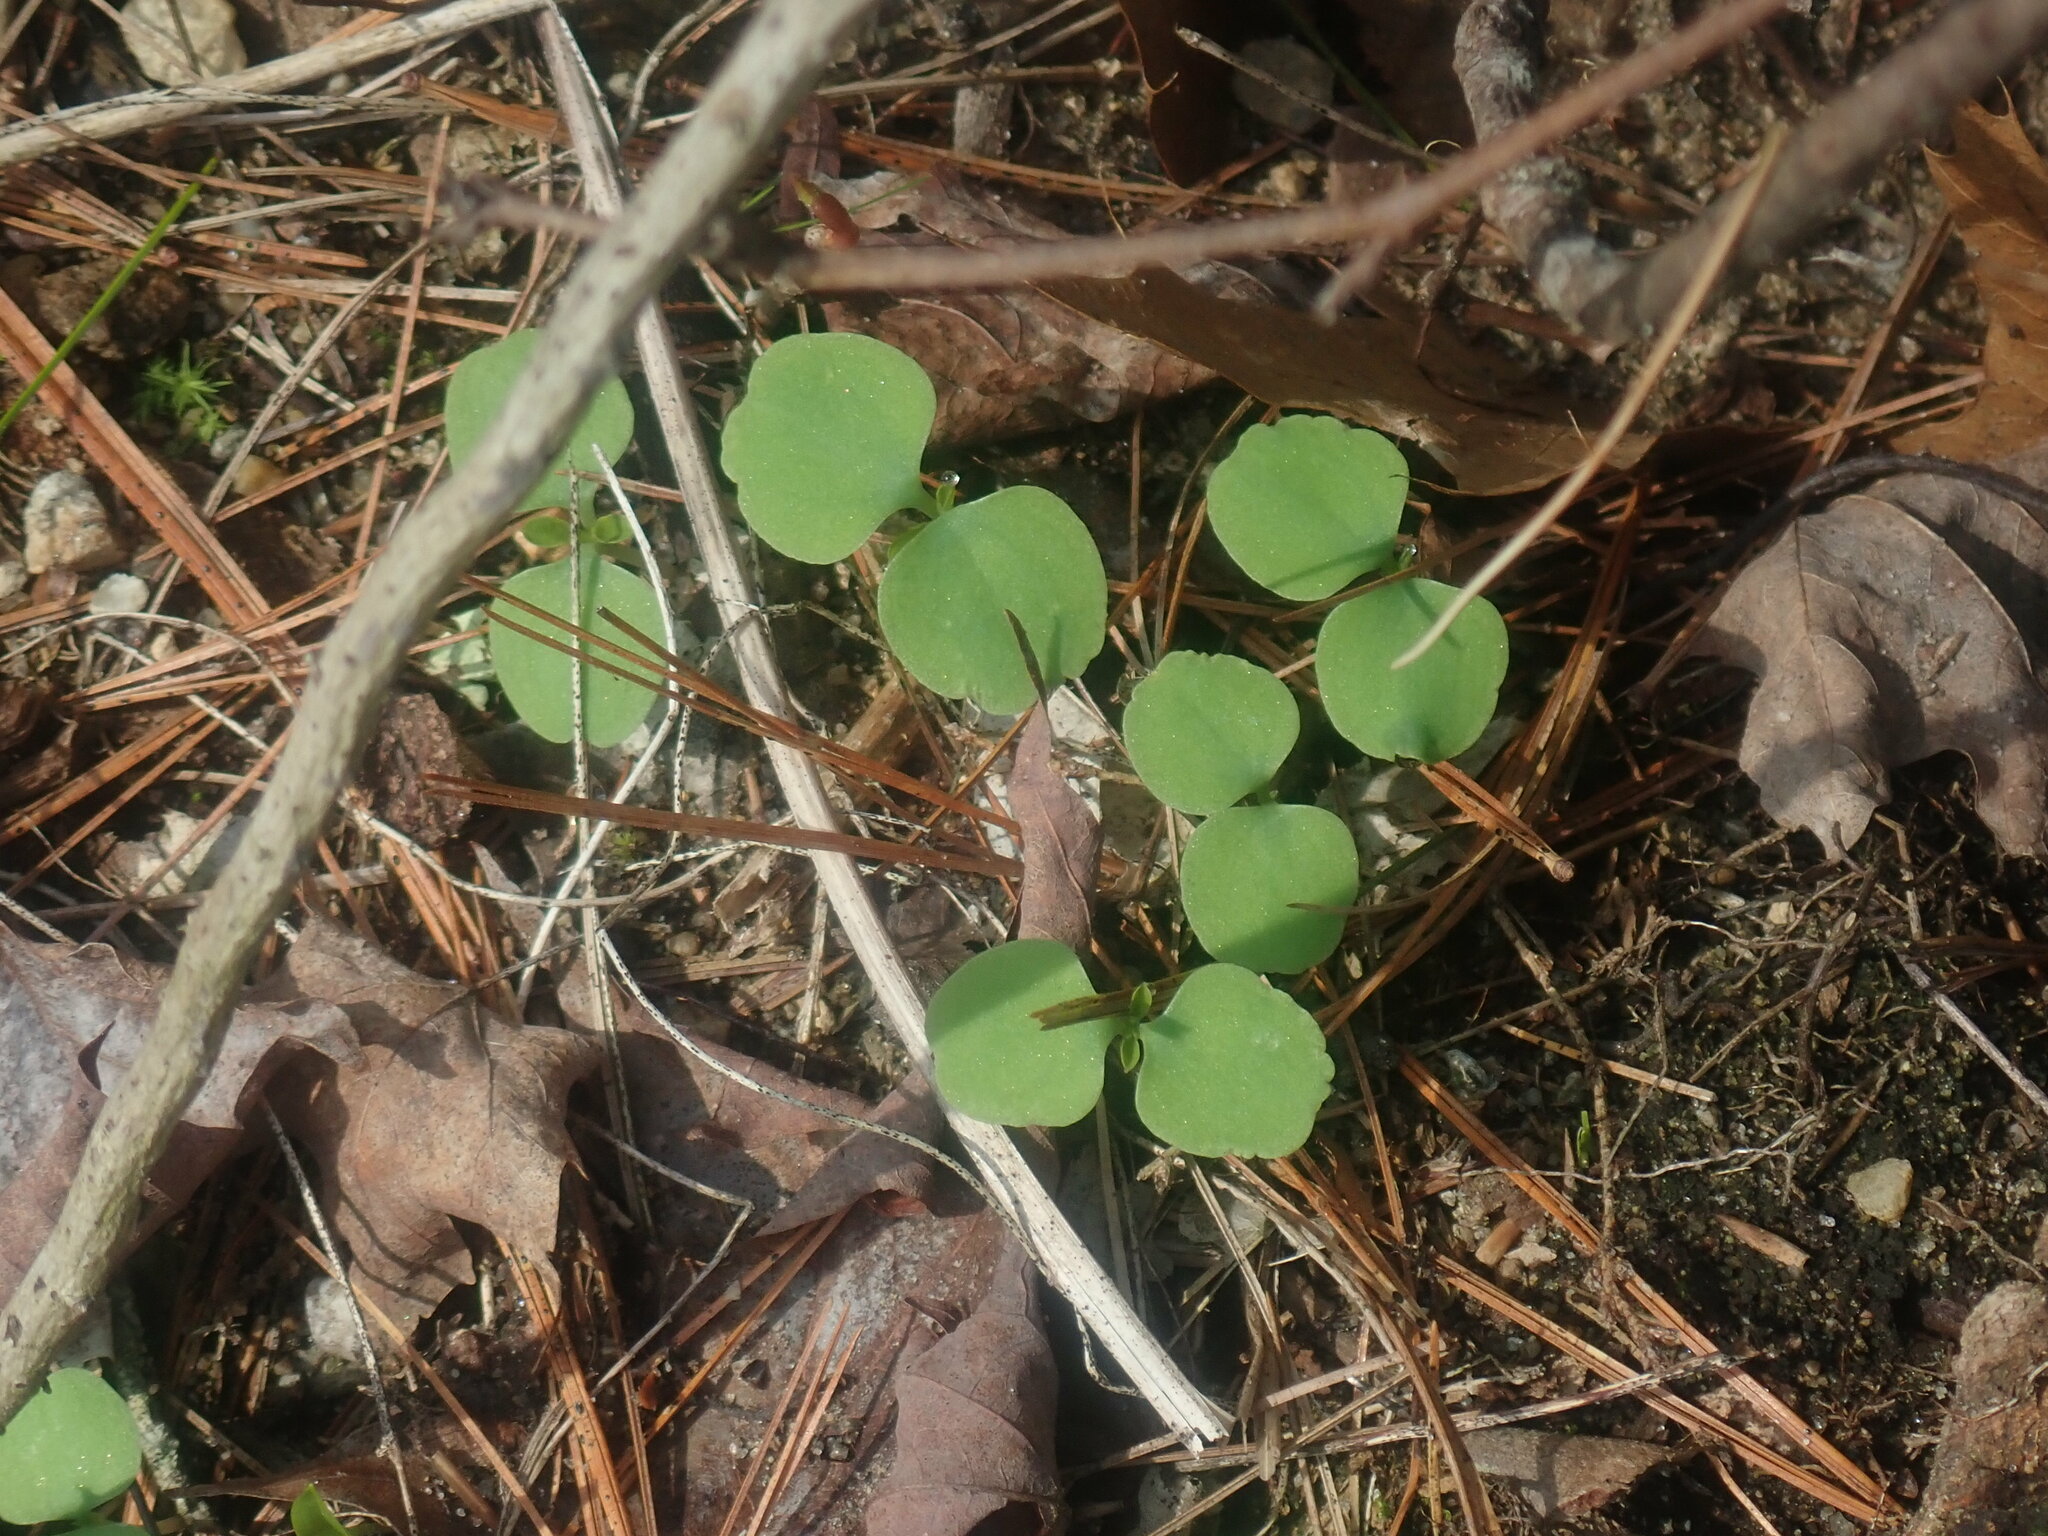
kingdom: Plantae
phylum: Tracheophyta
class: Magnoliopsida
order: Ericales
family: Balsaminaceae
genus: Impatiens
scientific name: Impatiens
